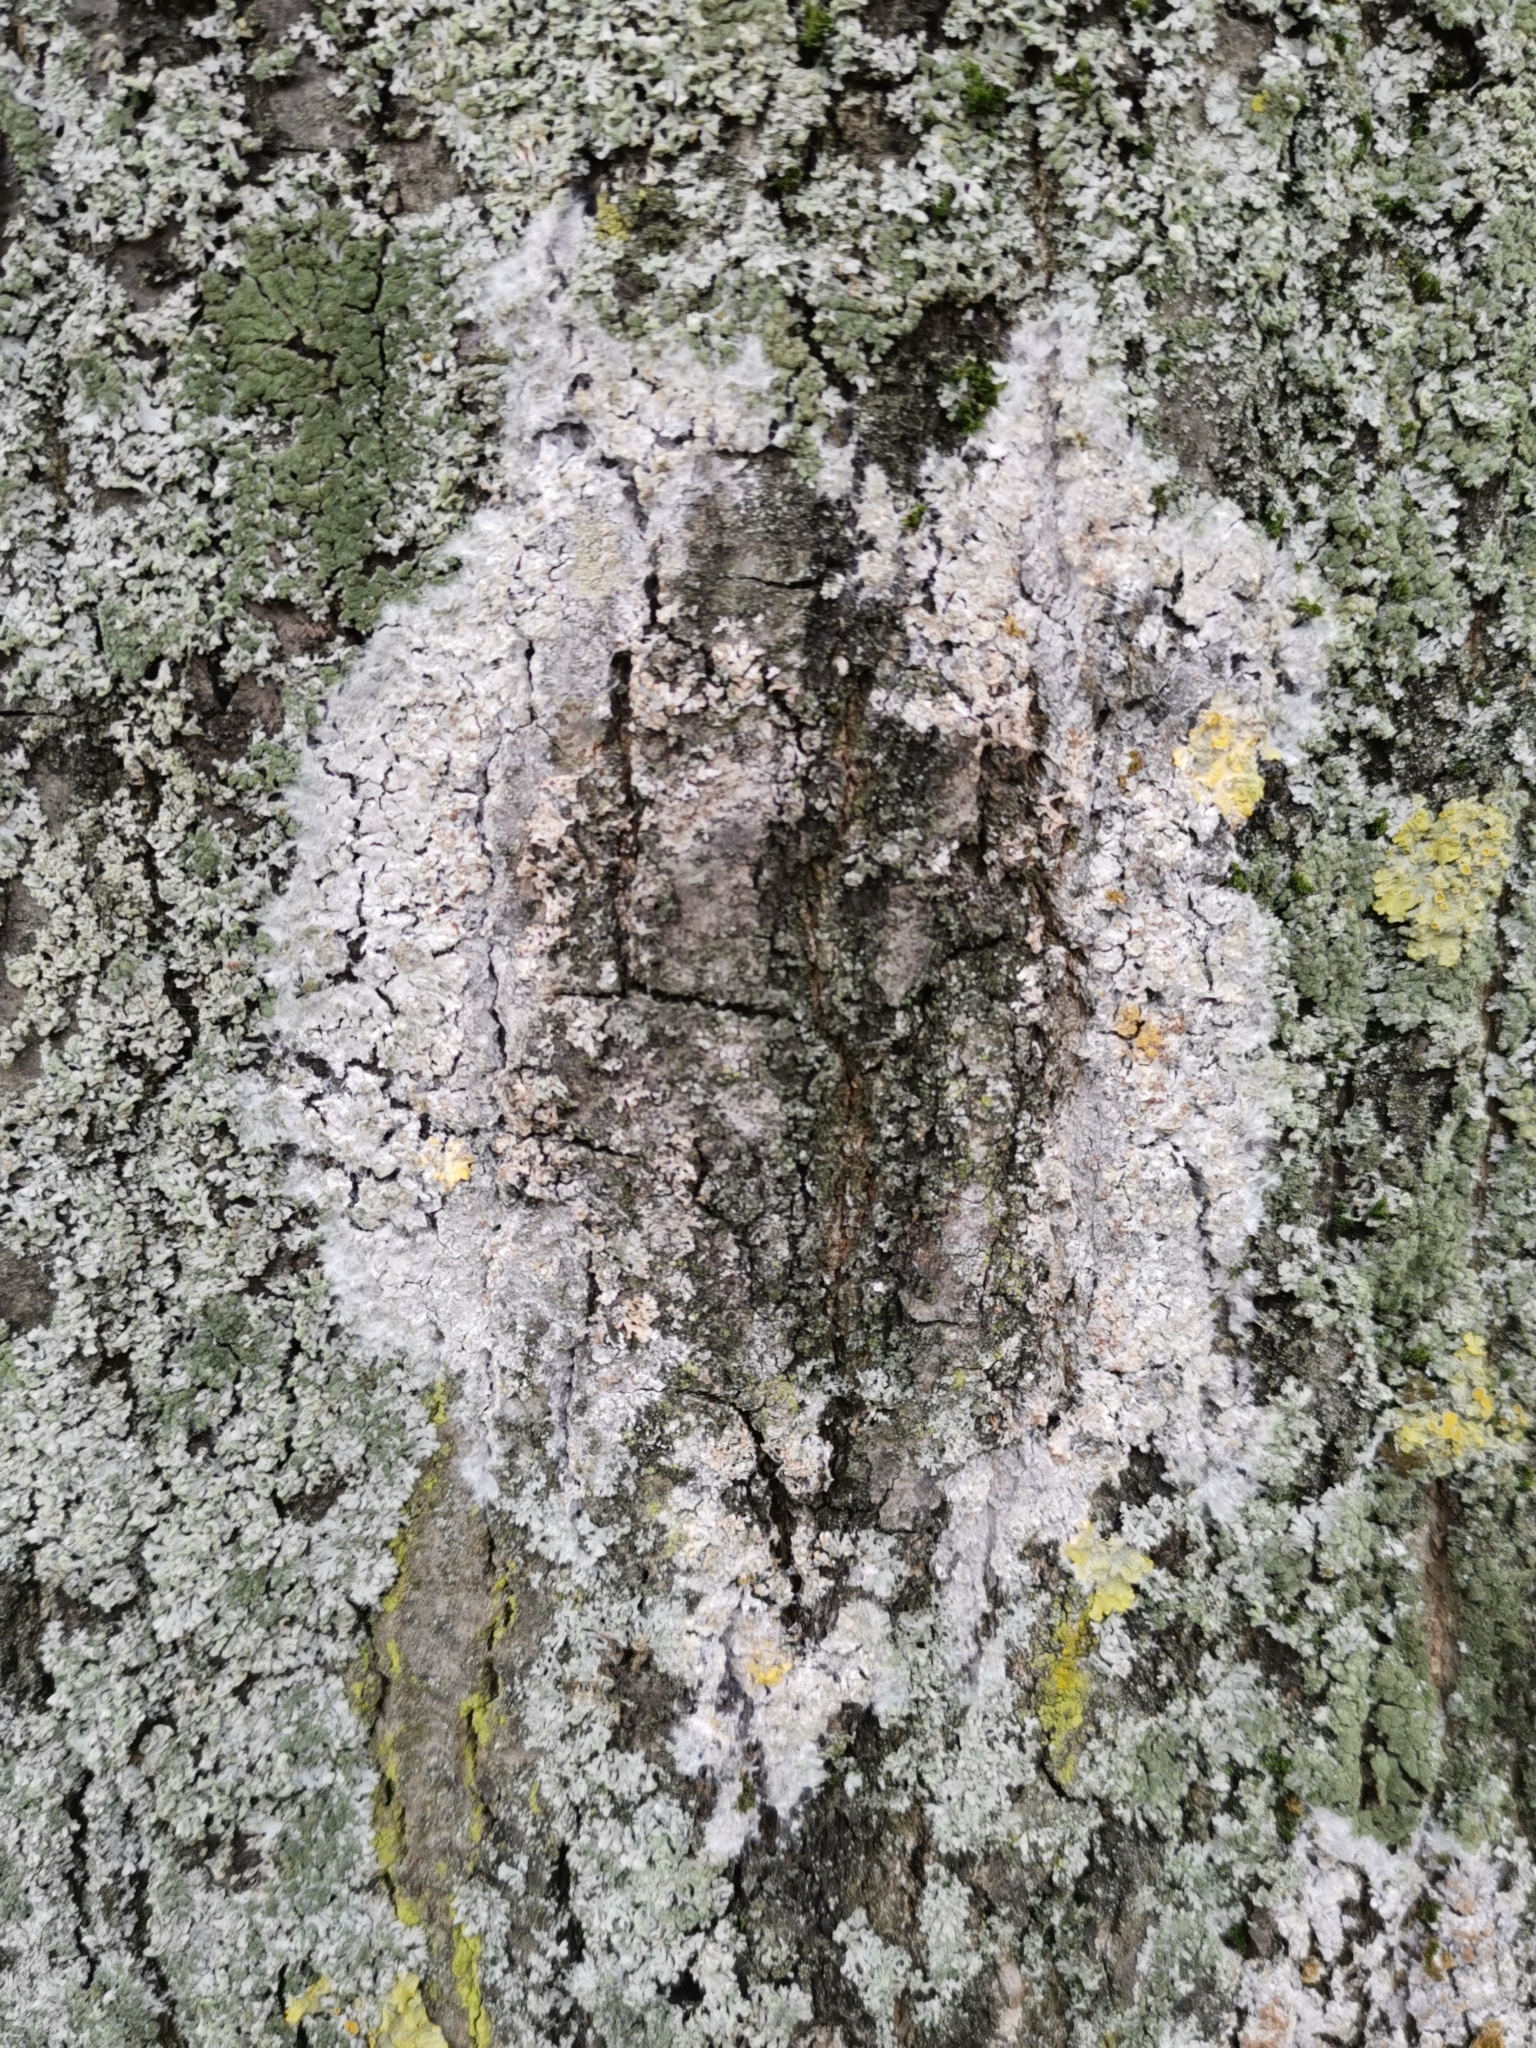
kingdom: Fungi
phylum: Basidiomycota
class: Agaricomycetes
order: Atheliales
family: Atheliaceae
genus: Athelia
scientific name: Athelia arachnoidea
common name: Candelabra duster
